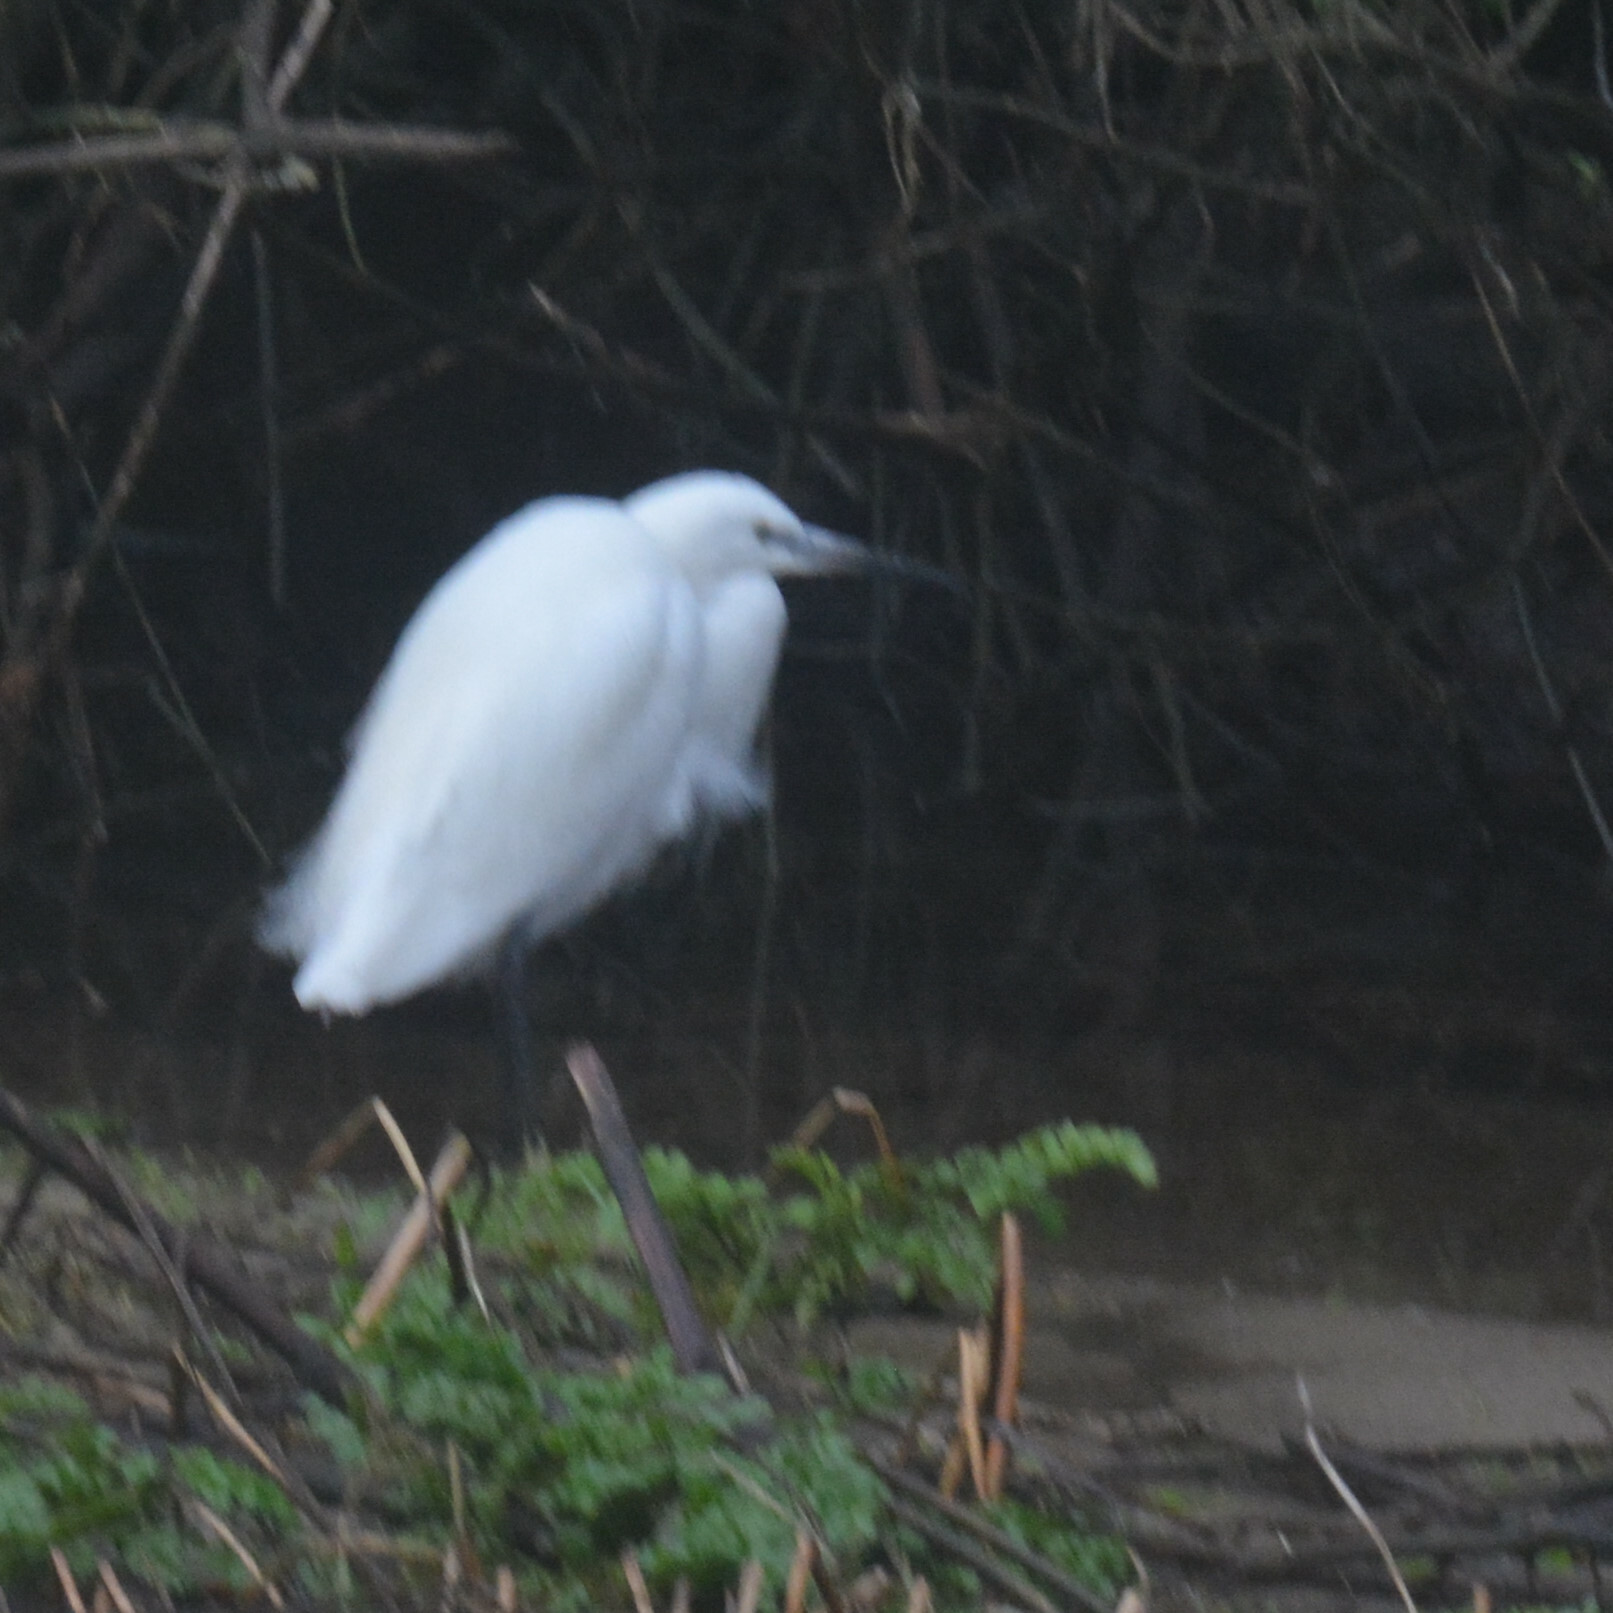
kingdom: Animalia
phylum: Chordata
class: Aves
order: Pelecaniformes
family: Ardeidae
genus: Egretta
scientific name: Egretta garzetta
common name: Little egret
